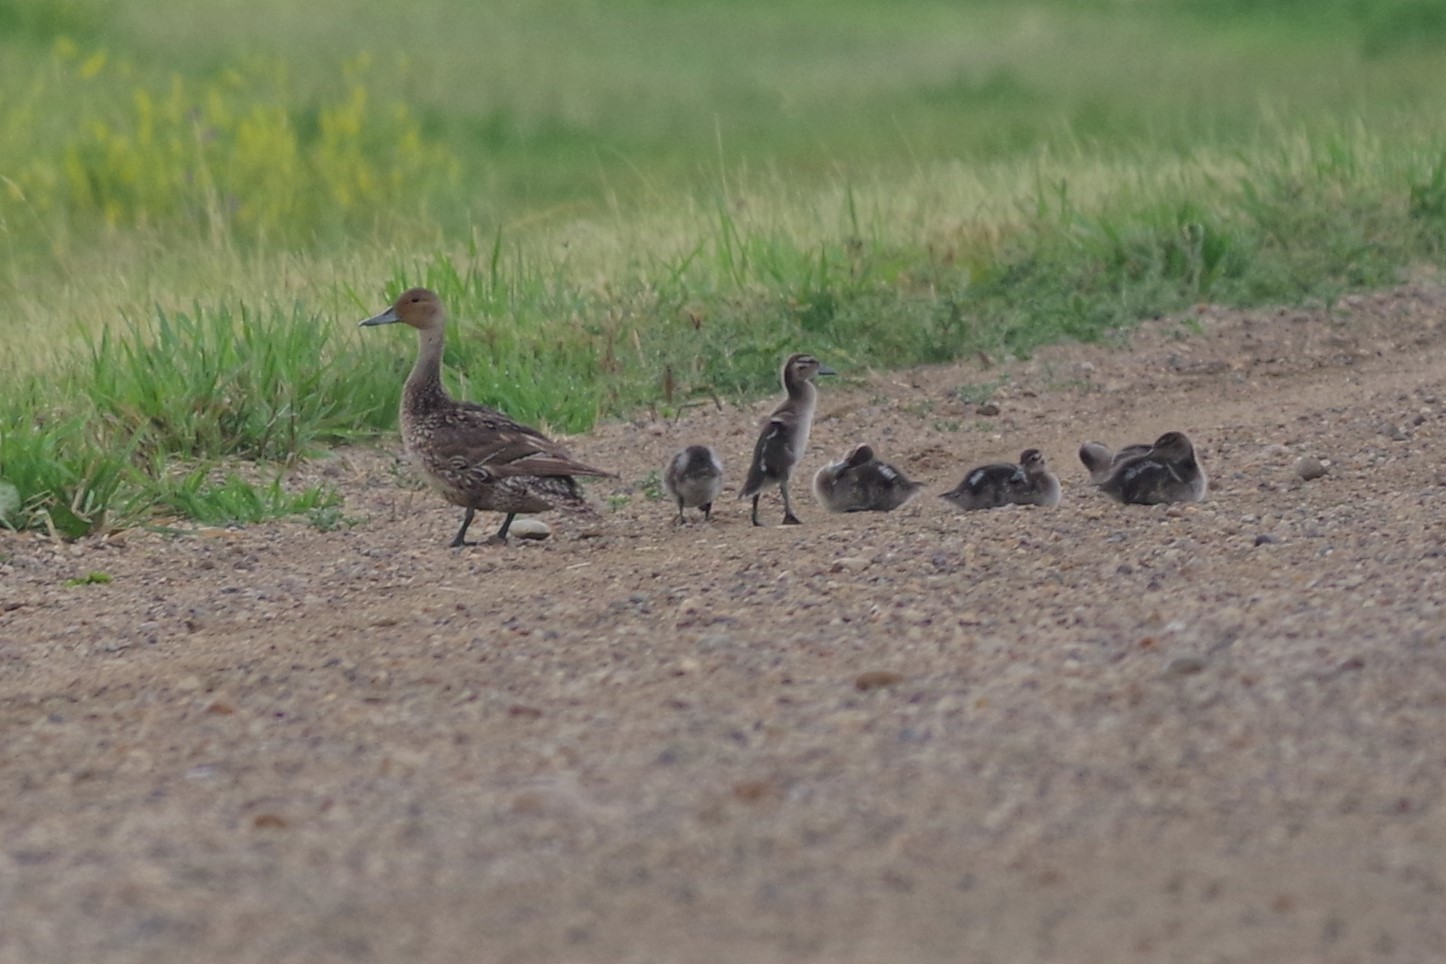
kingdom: Animalia
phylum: Chordata
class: Aves
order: Anseriformes
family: Anatidae
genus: Anas
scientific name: Anas acuta
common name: Northern pintail
